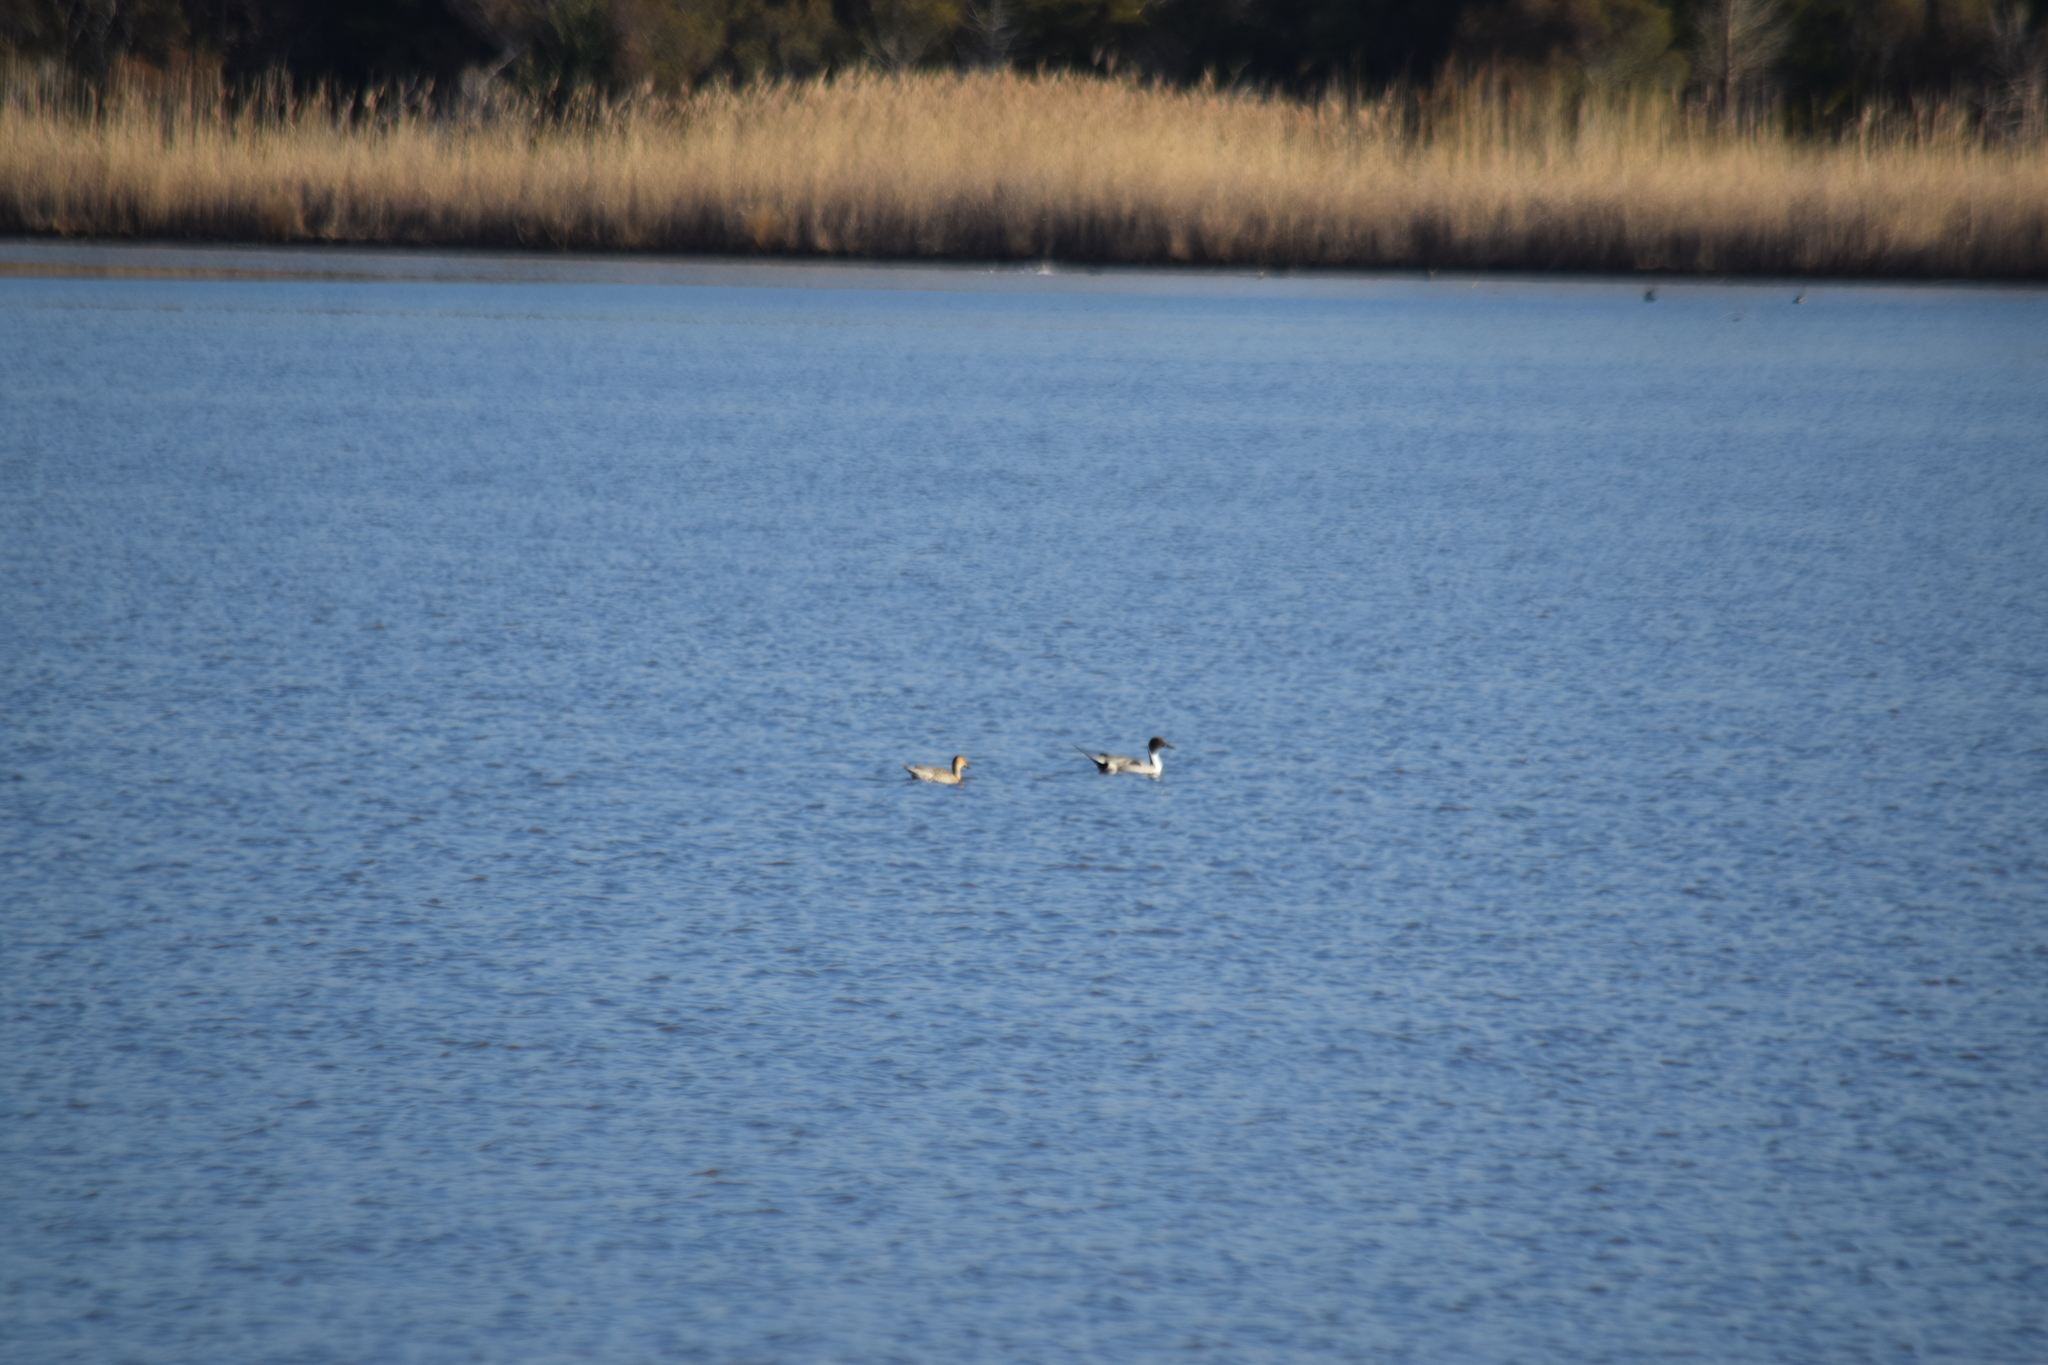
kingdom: Animalia
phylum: Chordata
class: Aves
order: Anseriformes
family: Anatidae
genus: Anas
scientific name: Anas acuta
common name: Northern pintail
